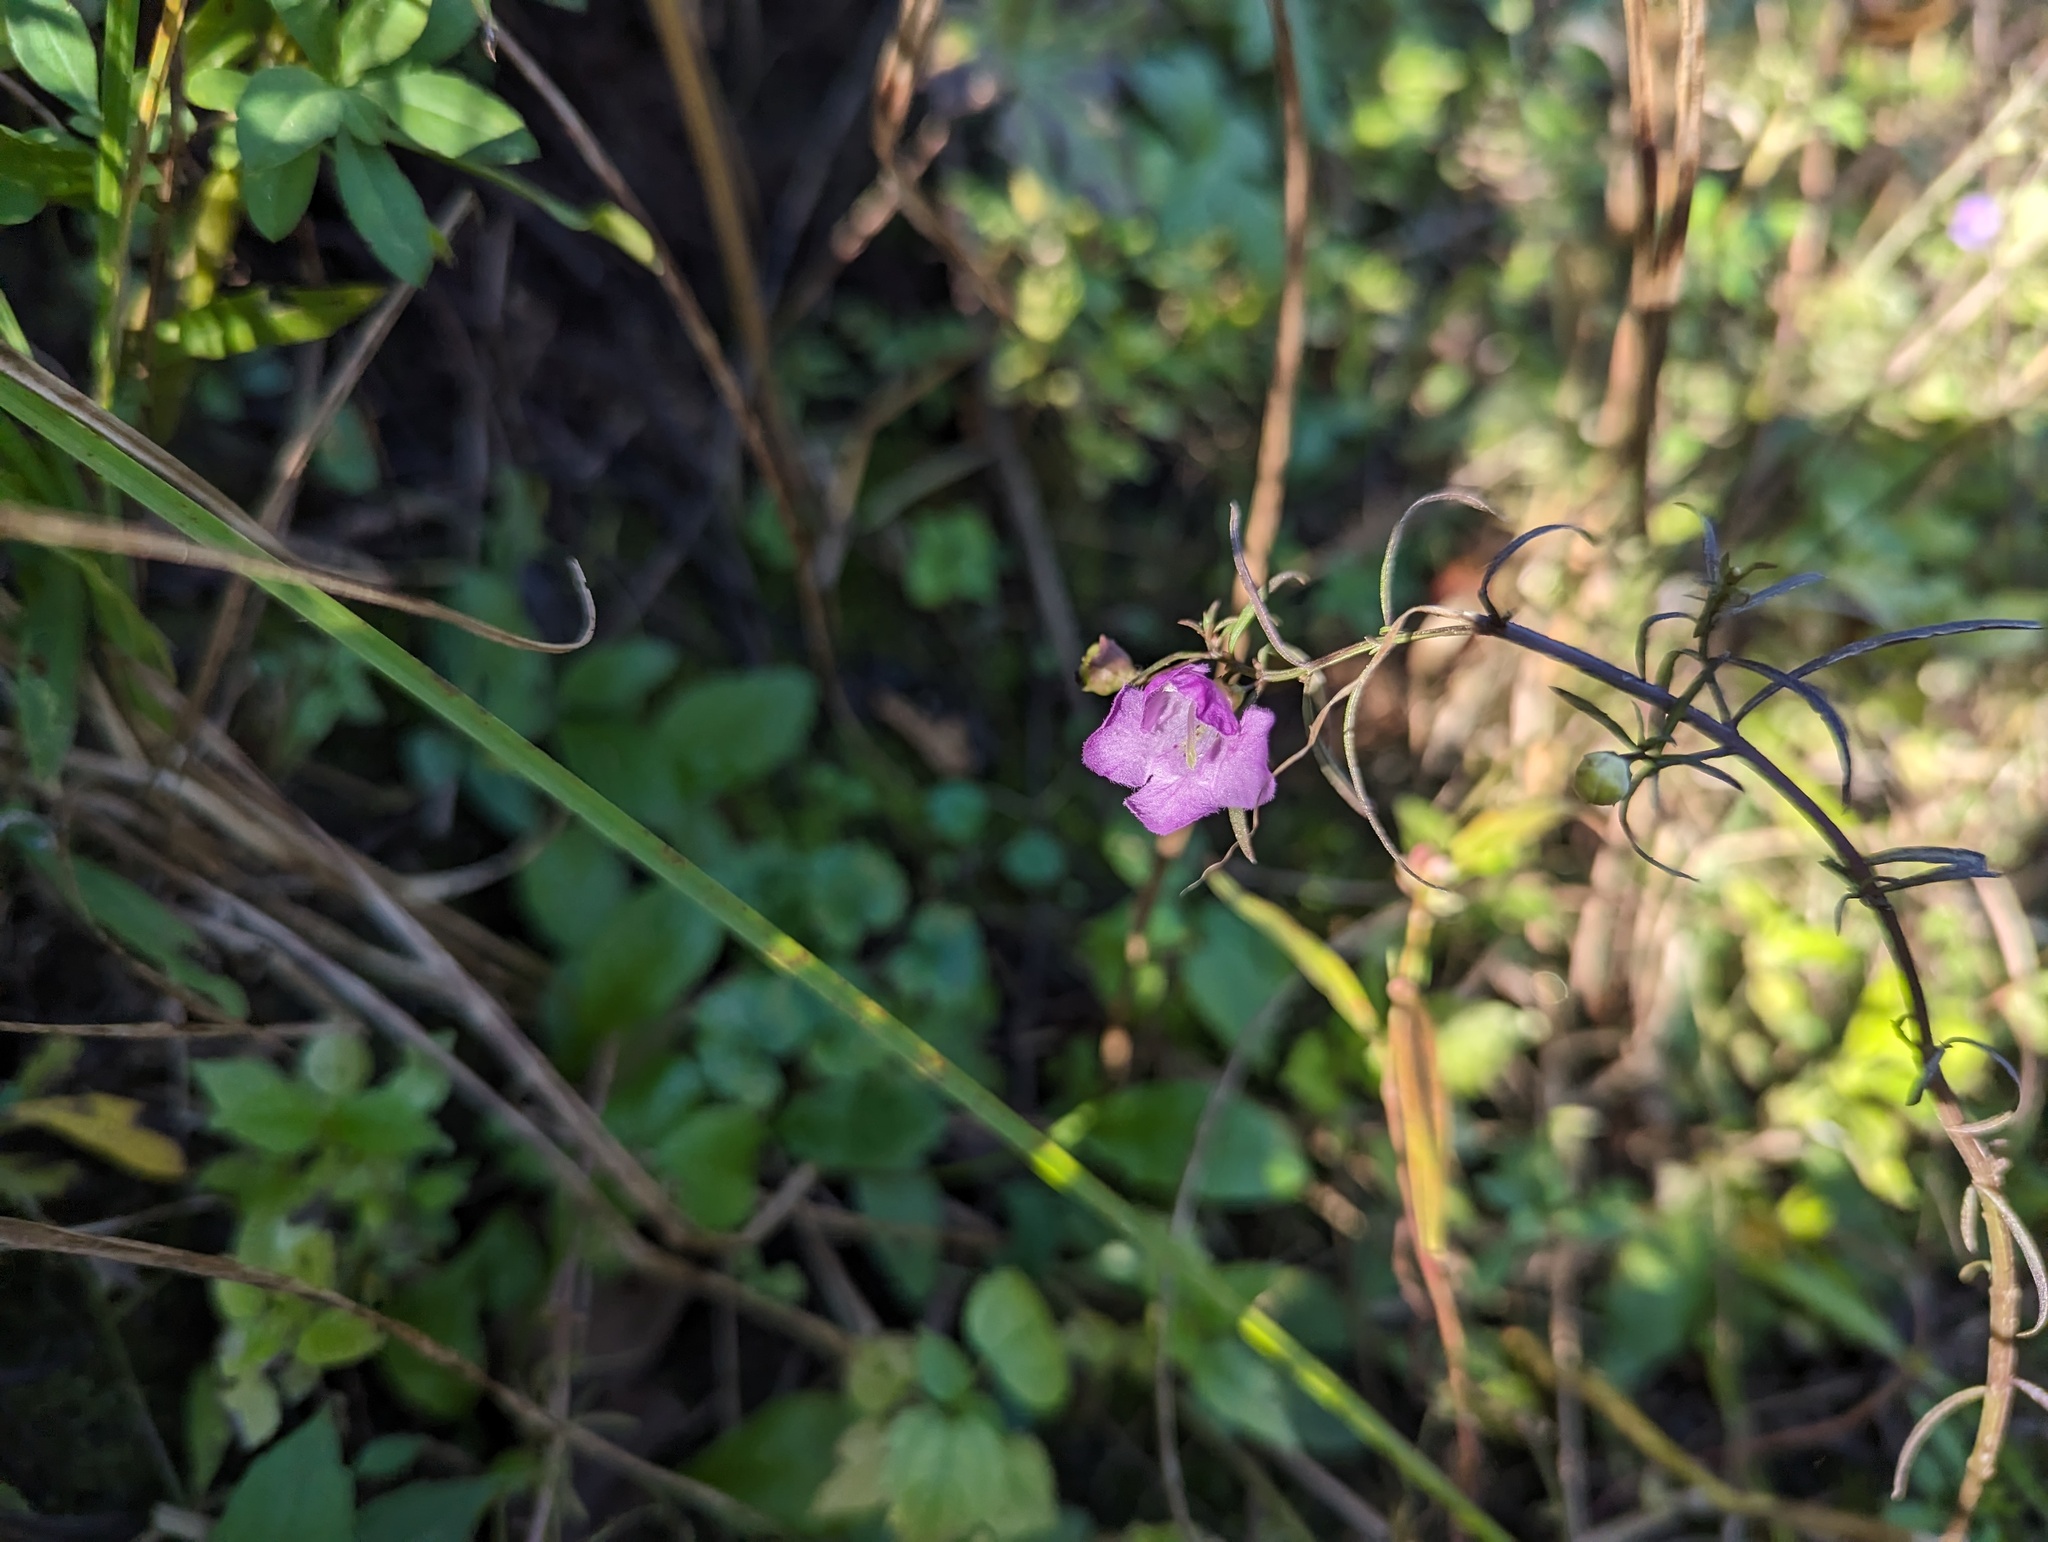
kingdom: Plantae
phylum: Tracheophyta
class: Magnoliopsida
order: Lamiales
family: Orobanchaceae
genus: Agalinis
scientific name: Agalinis tenuifolia
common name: Slender agalinis
